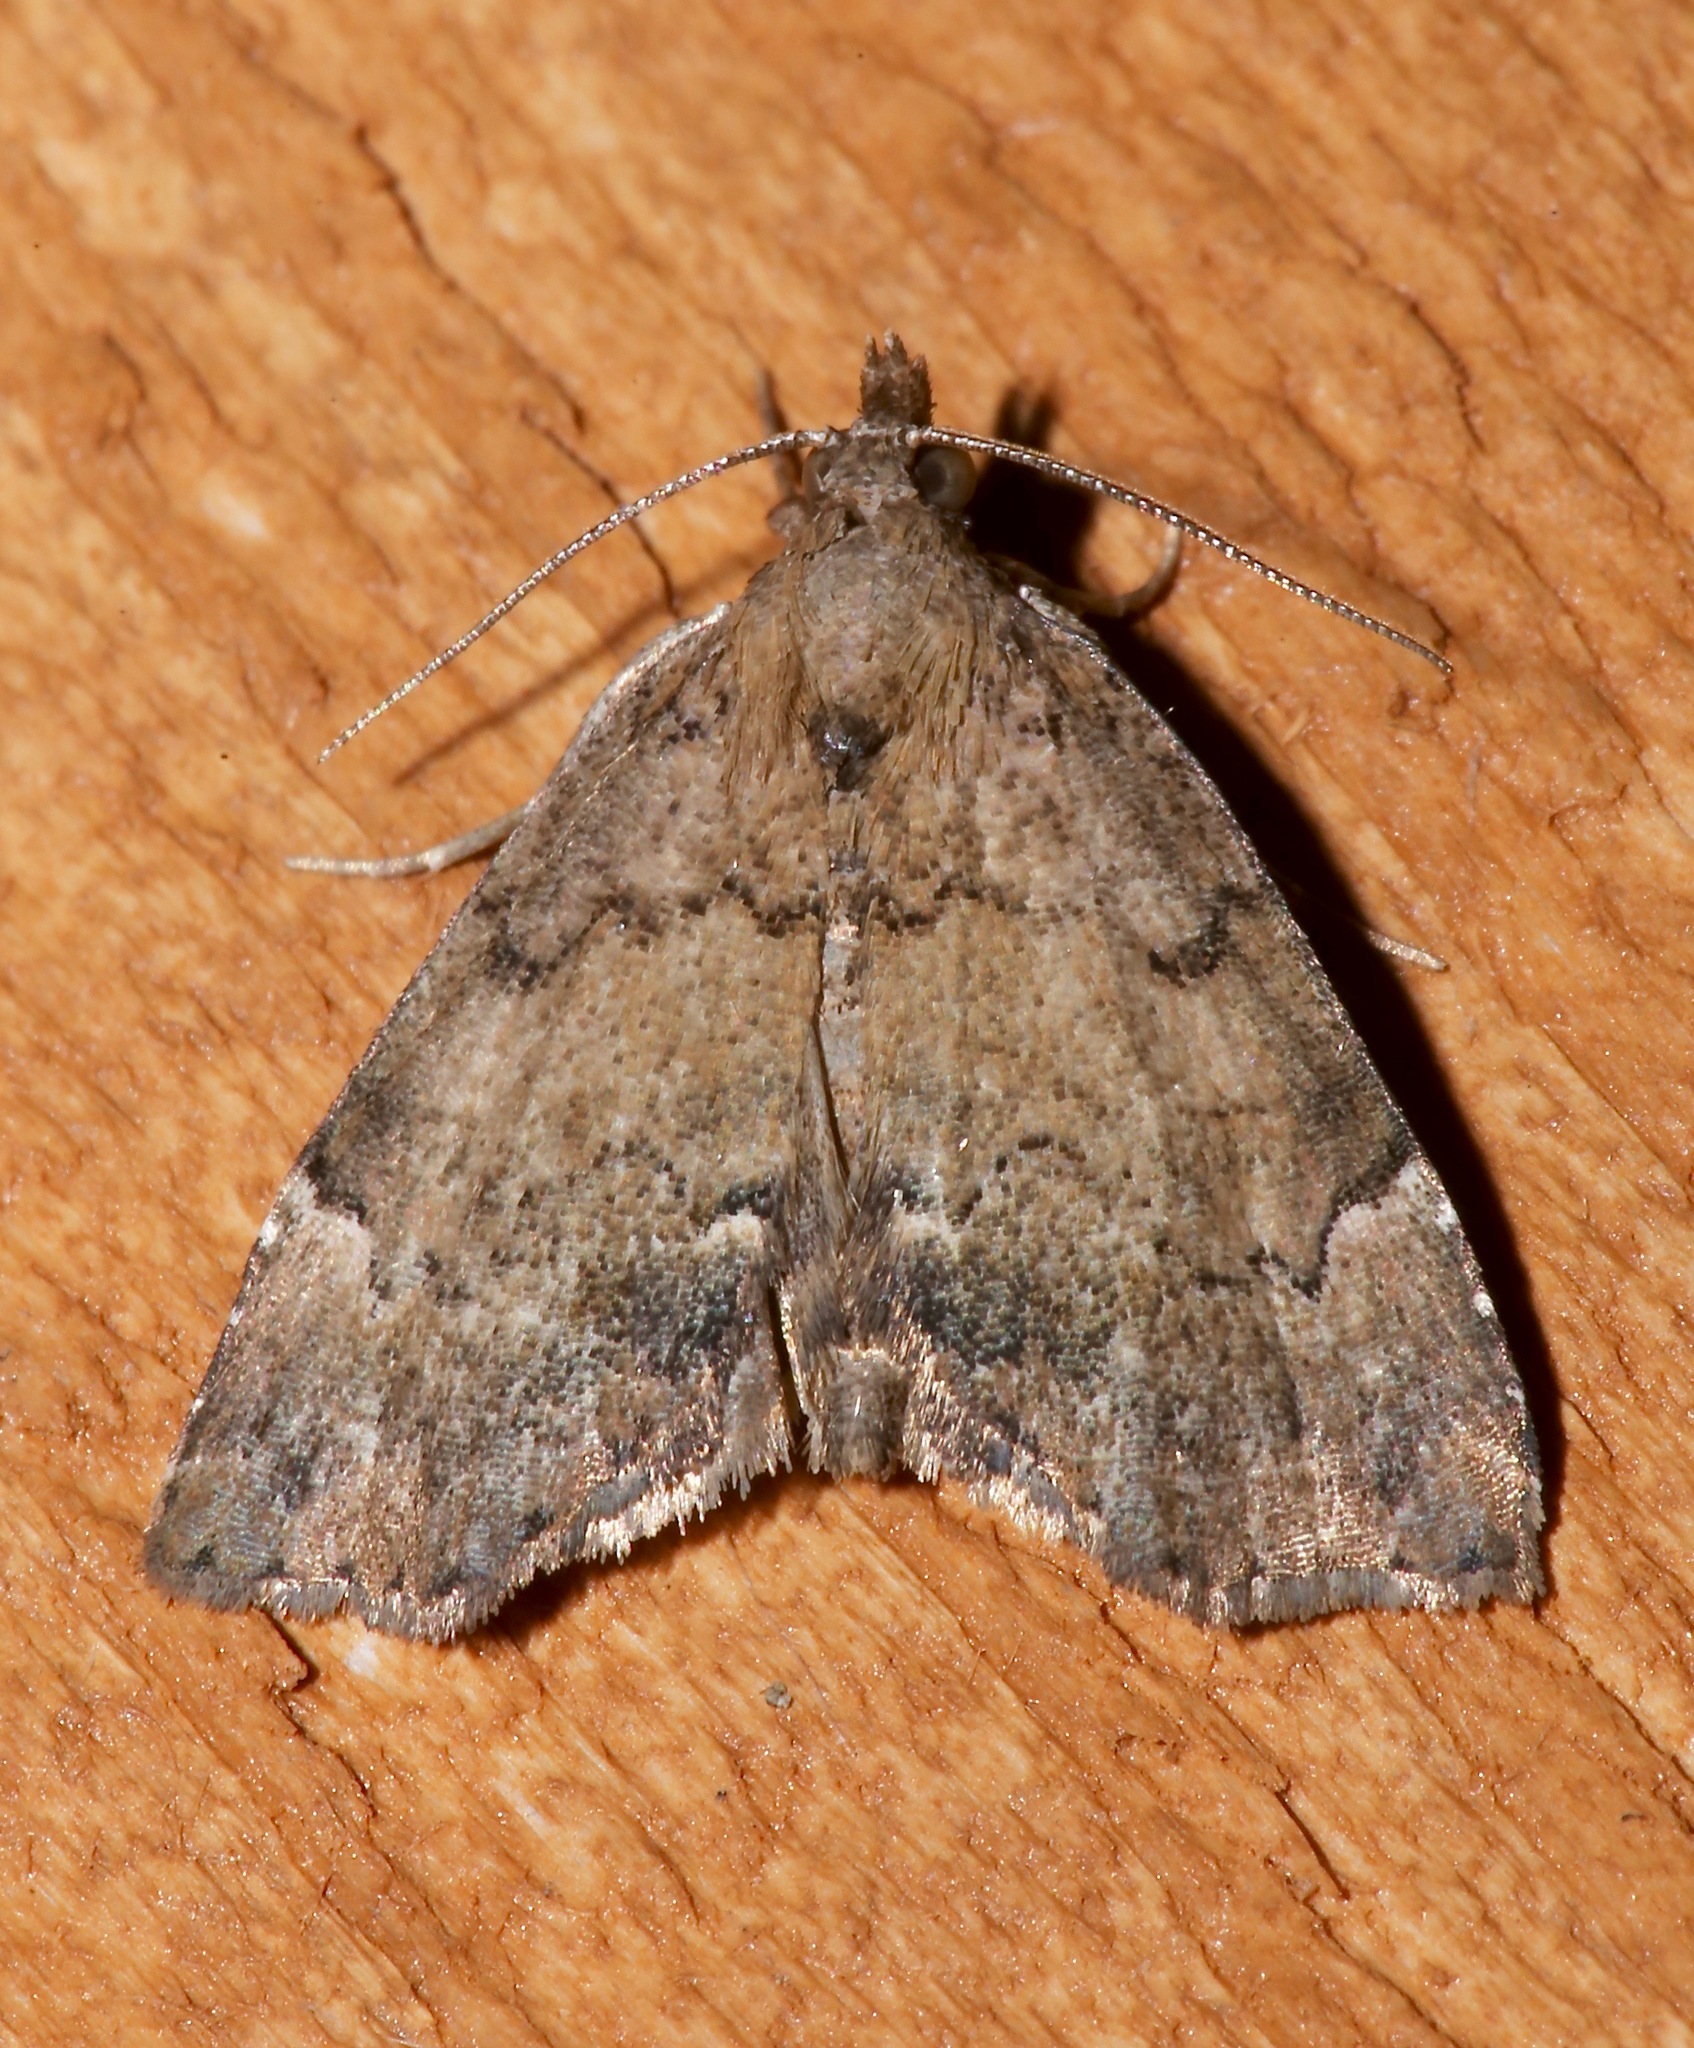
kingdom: Animalia
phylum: Arthropoda
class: Insecta
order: Lepidoptera
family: Erebidae
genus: Cutina
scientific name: Cutina aluticolor
